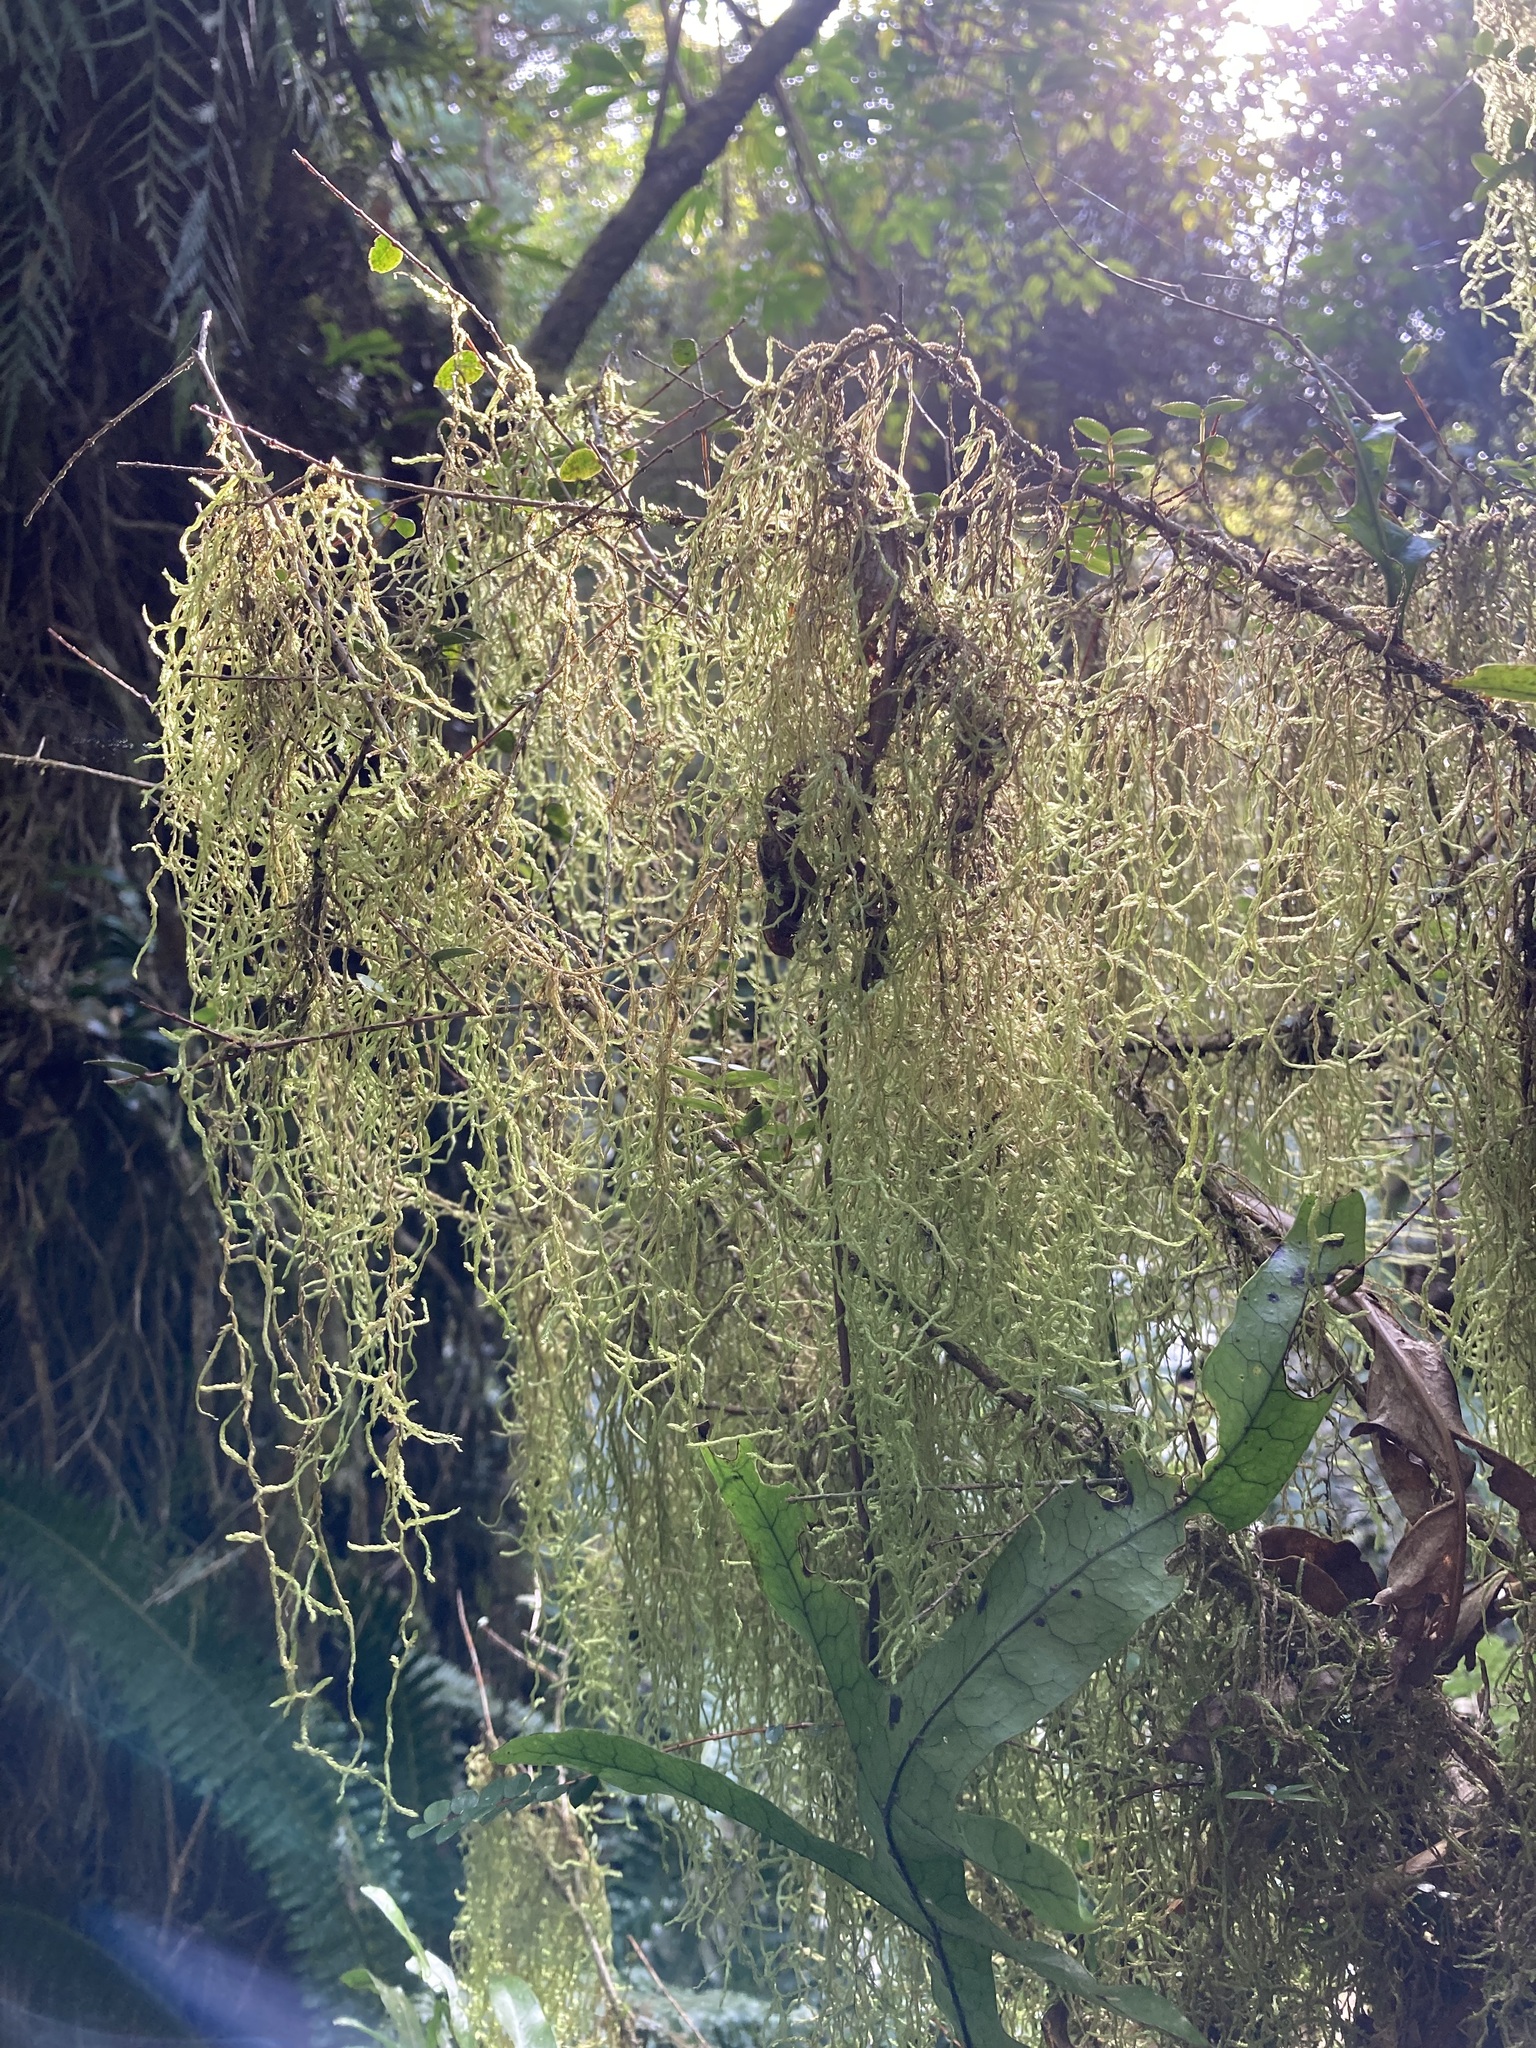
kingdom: Plantae
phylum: Bryophyta
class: Bryopsida
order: Hypnales
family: Lembophyllaceae
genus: Weymouthia
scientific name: Weymouthia mollis
